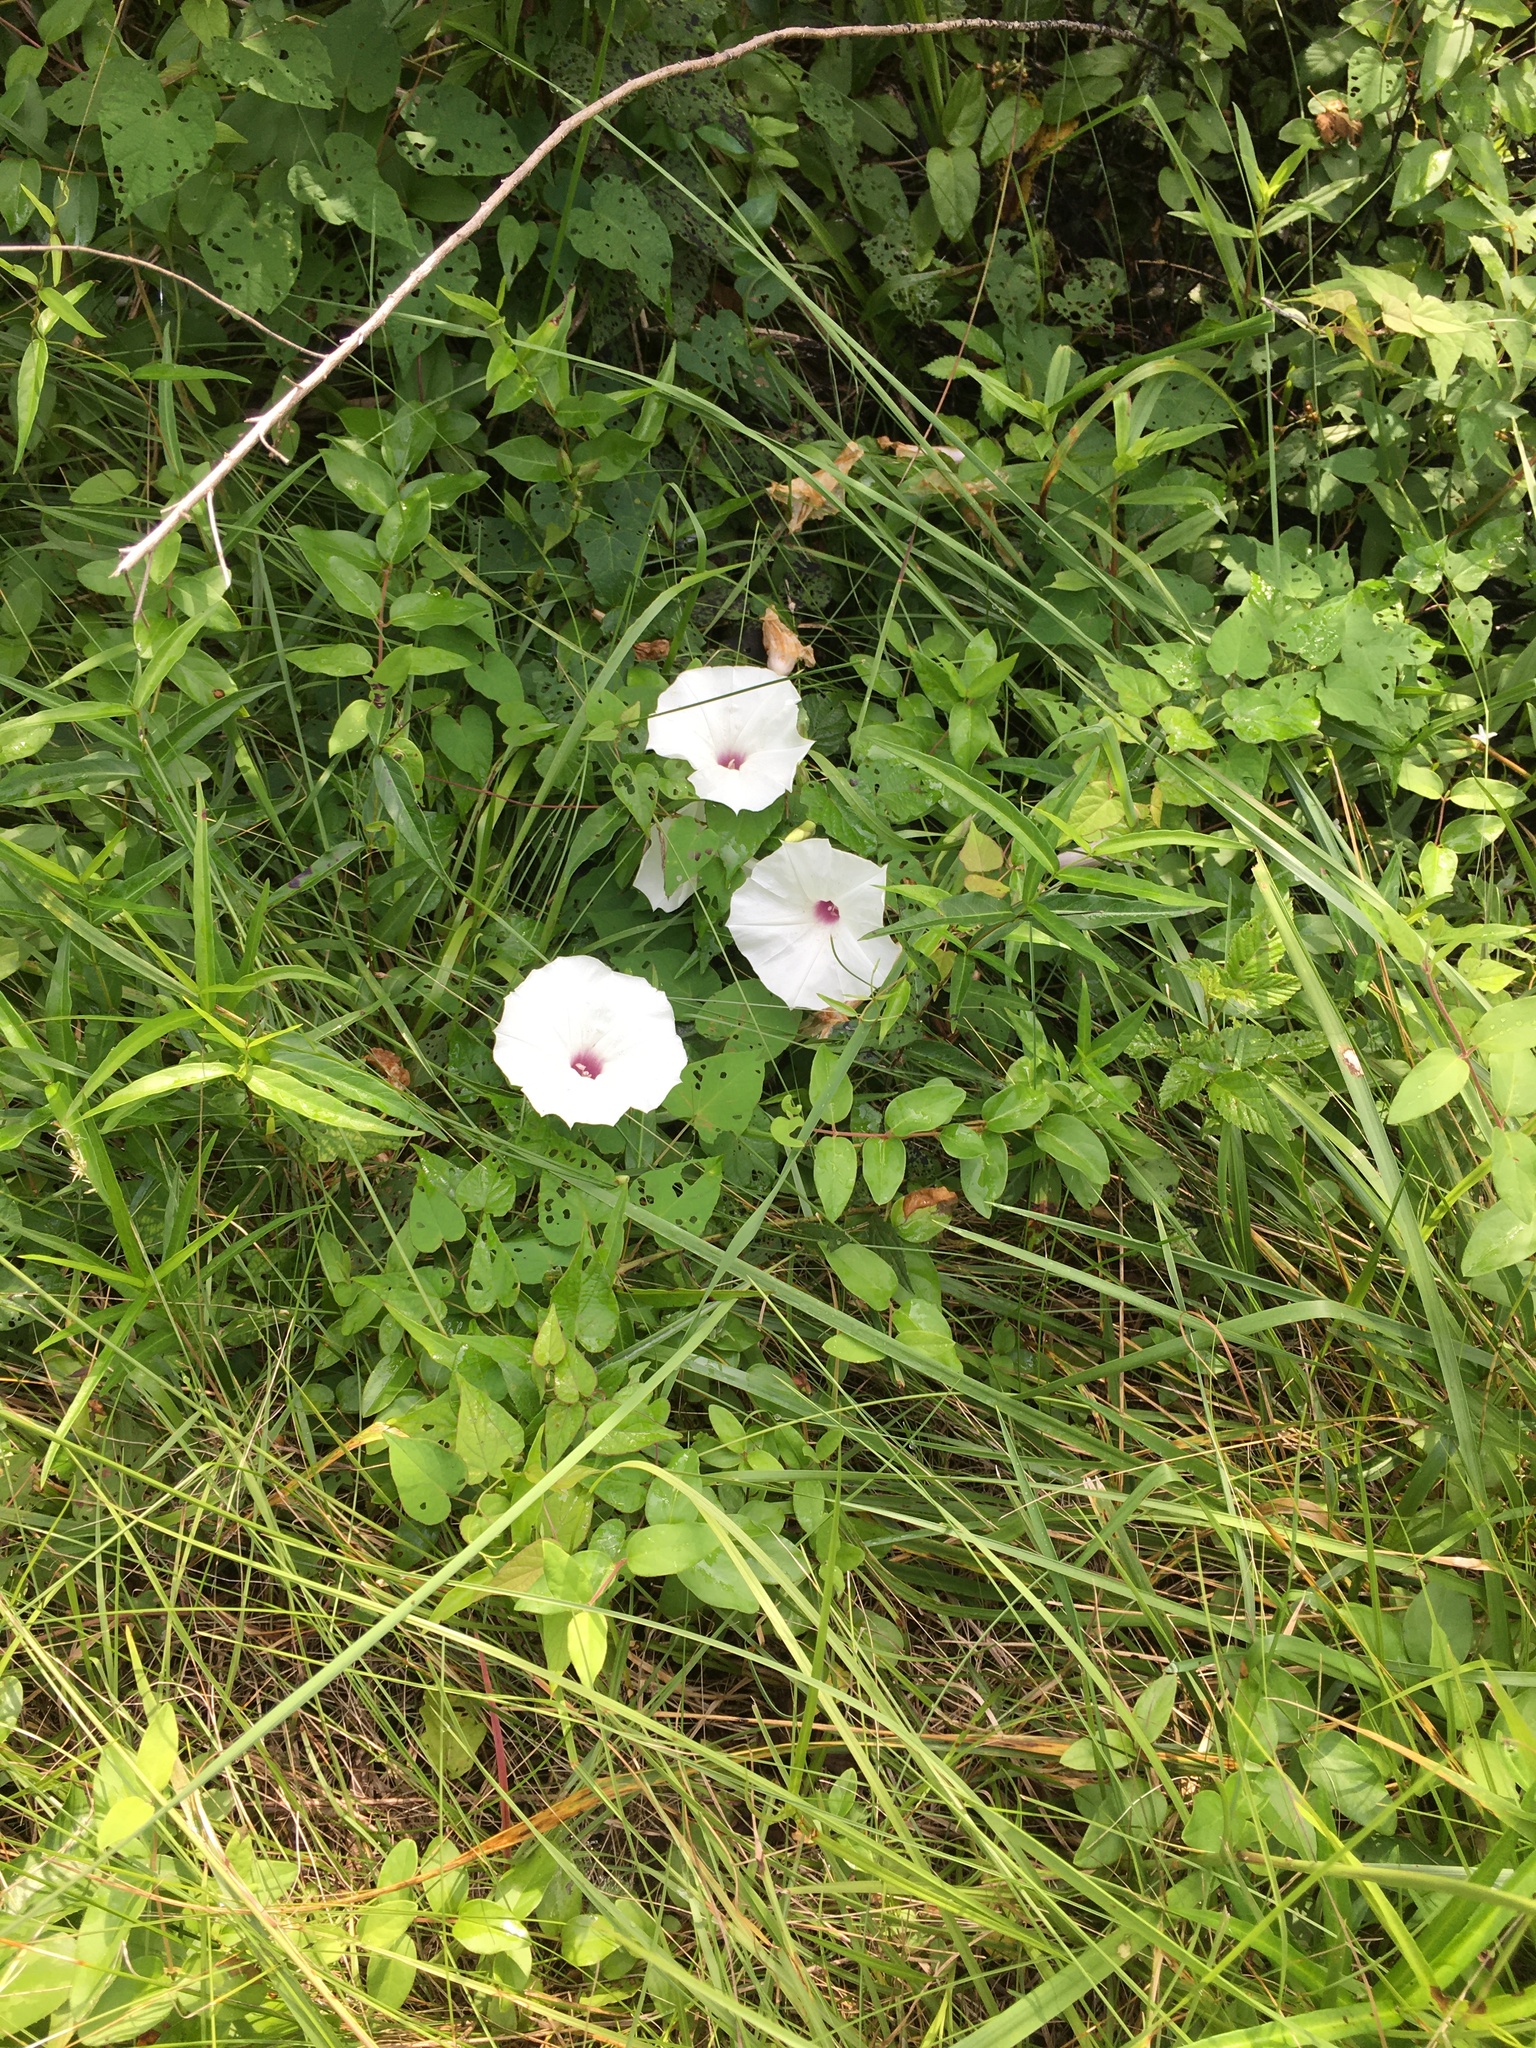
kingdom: Plantae
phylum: Tracheophyta
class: Magnoliopsida
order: Solanales
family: Convolvulaceae
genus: Ipomoea
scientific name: Ipomoea pandurata
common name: Man-of-the-earth
